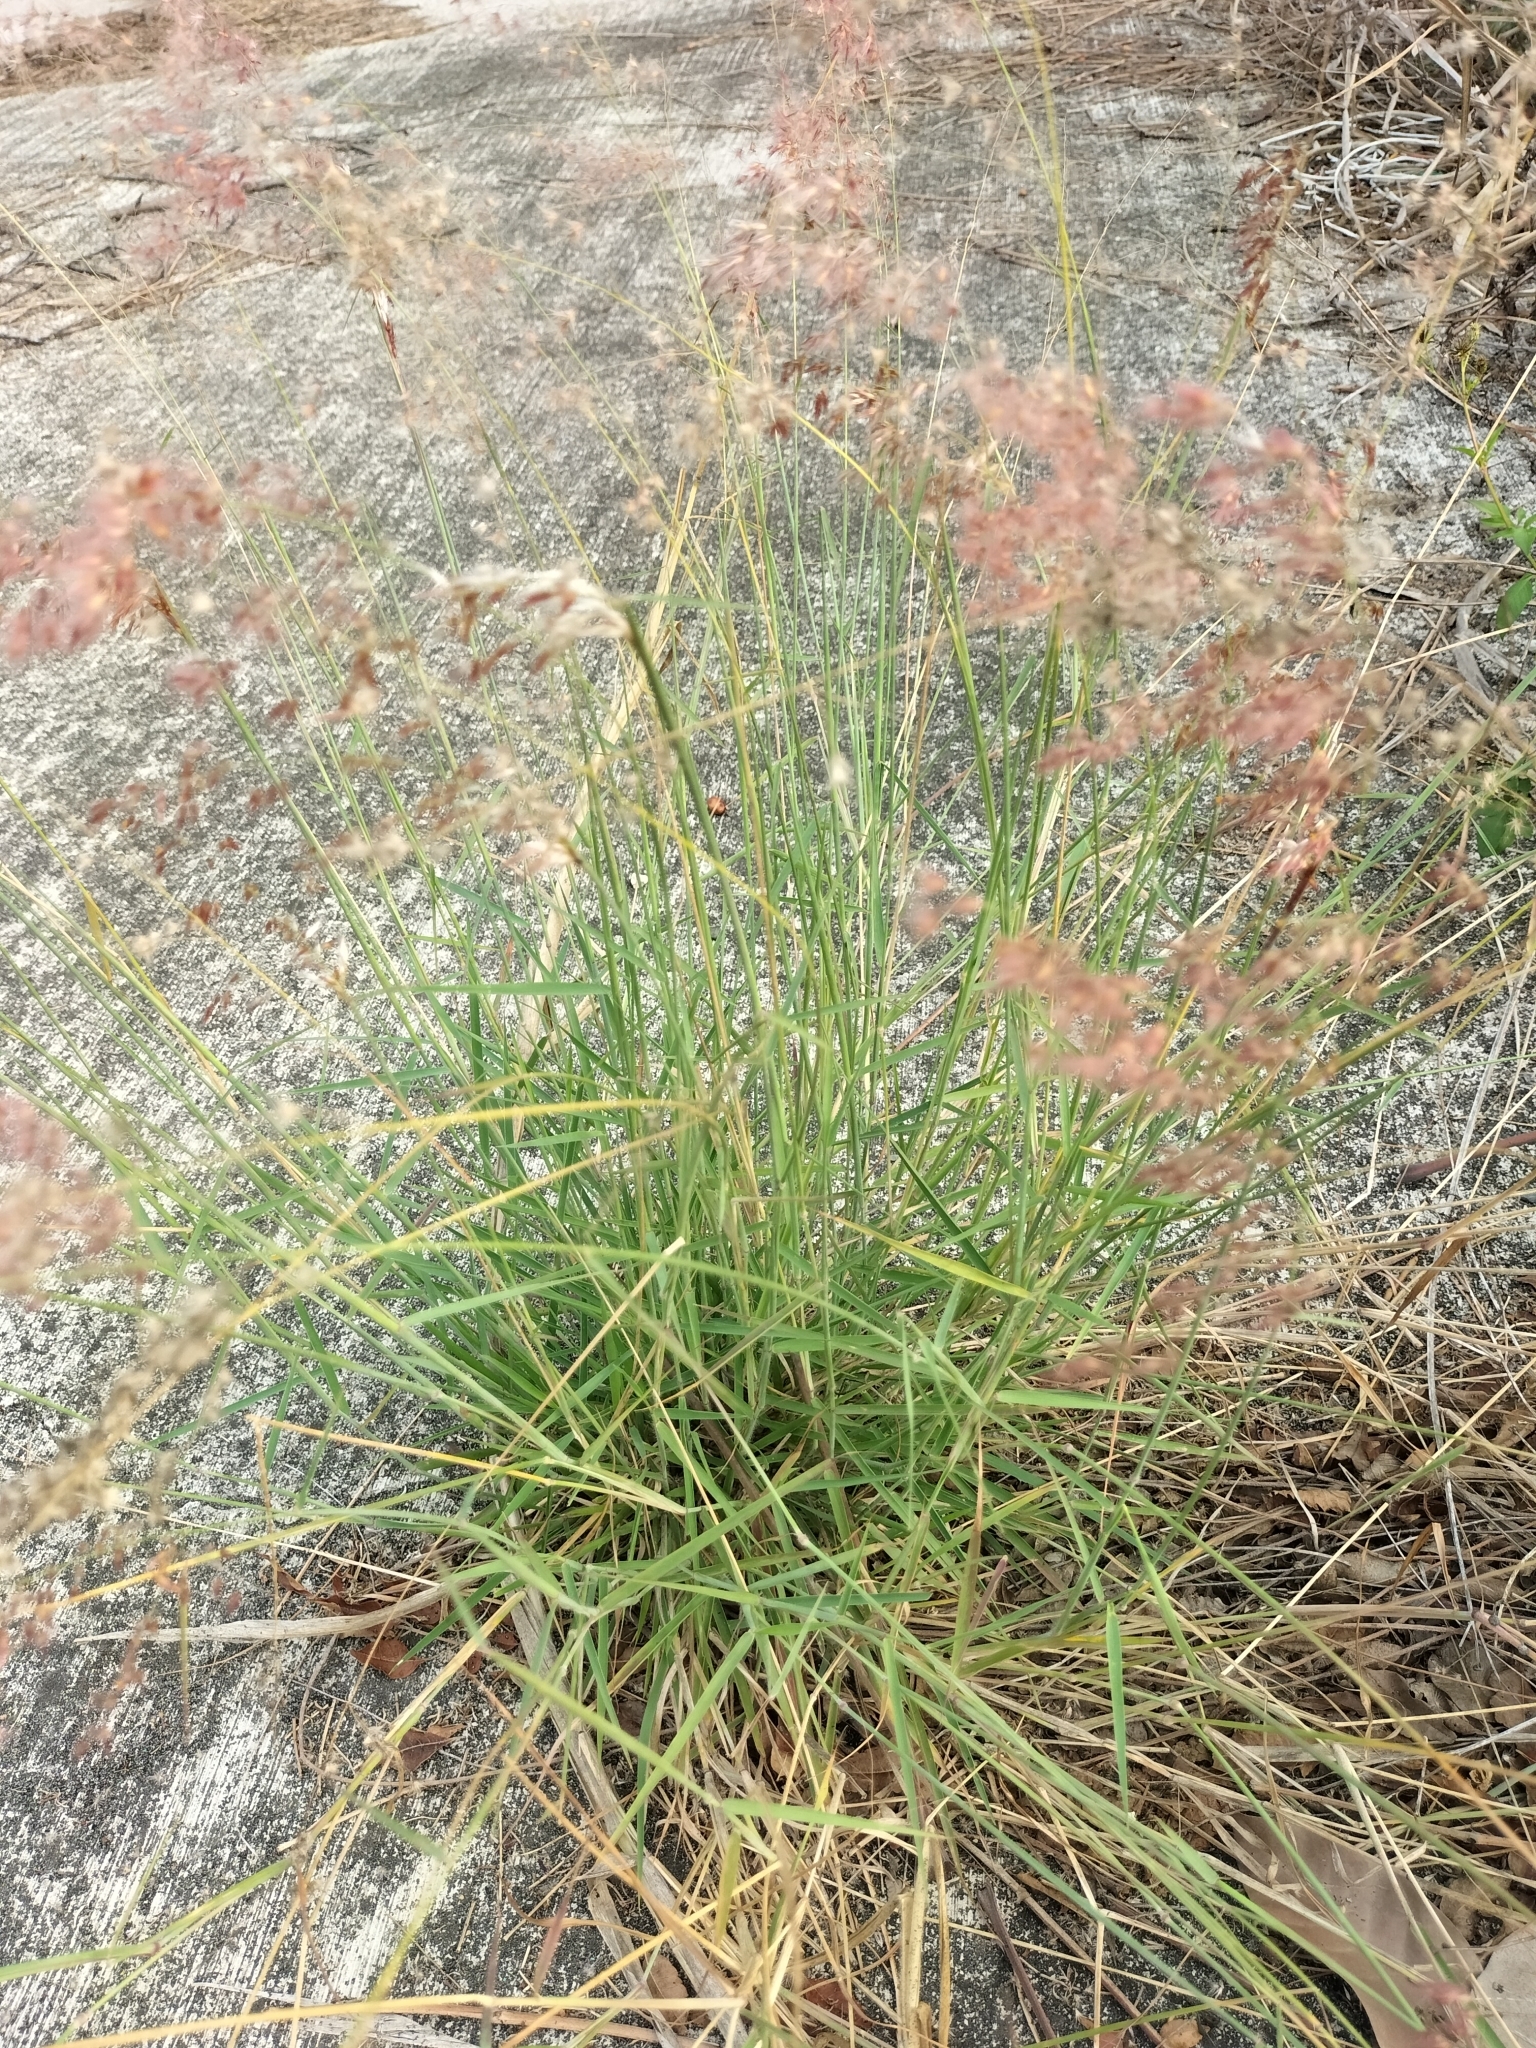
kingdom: Plantae
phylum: Tracheophyta
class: Liliopsida
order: Poales
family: Poaceae
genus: Melinis
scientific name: Melinis repens
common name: Rose natal grass
